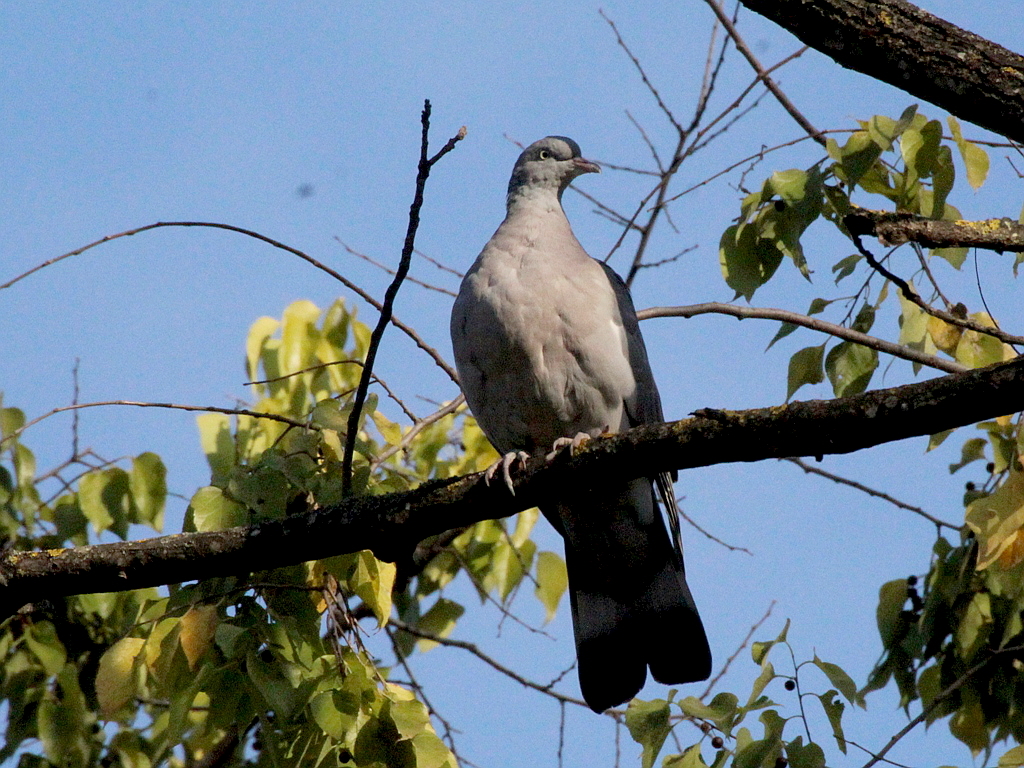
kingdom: Animalia
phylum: Chordata
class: Aves
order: Columbiformes
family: Columbidae
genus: Columba
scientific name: Columba palumbus
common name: Common wood pigeon
